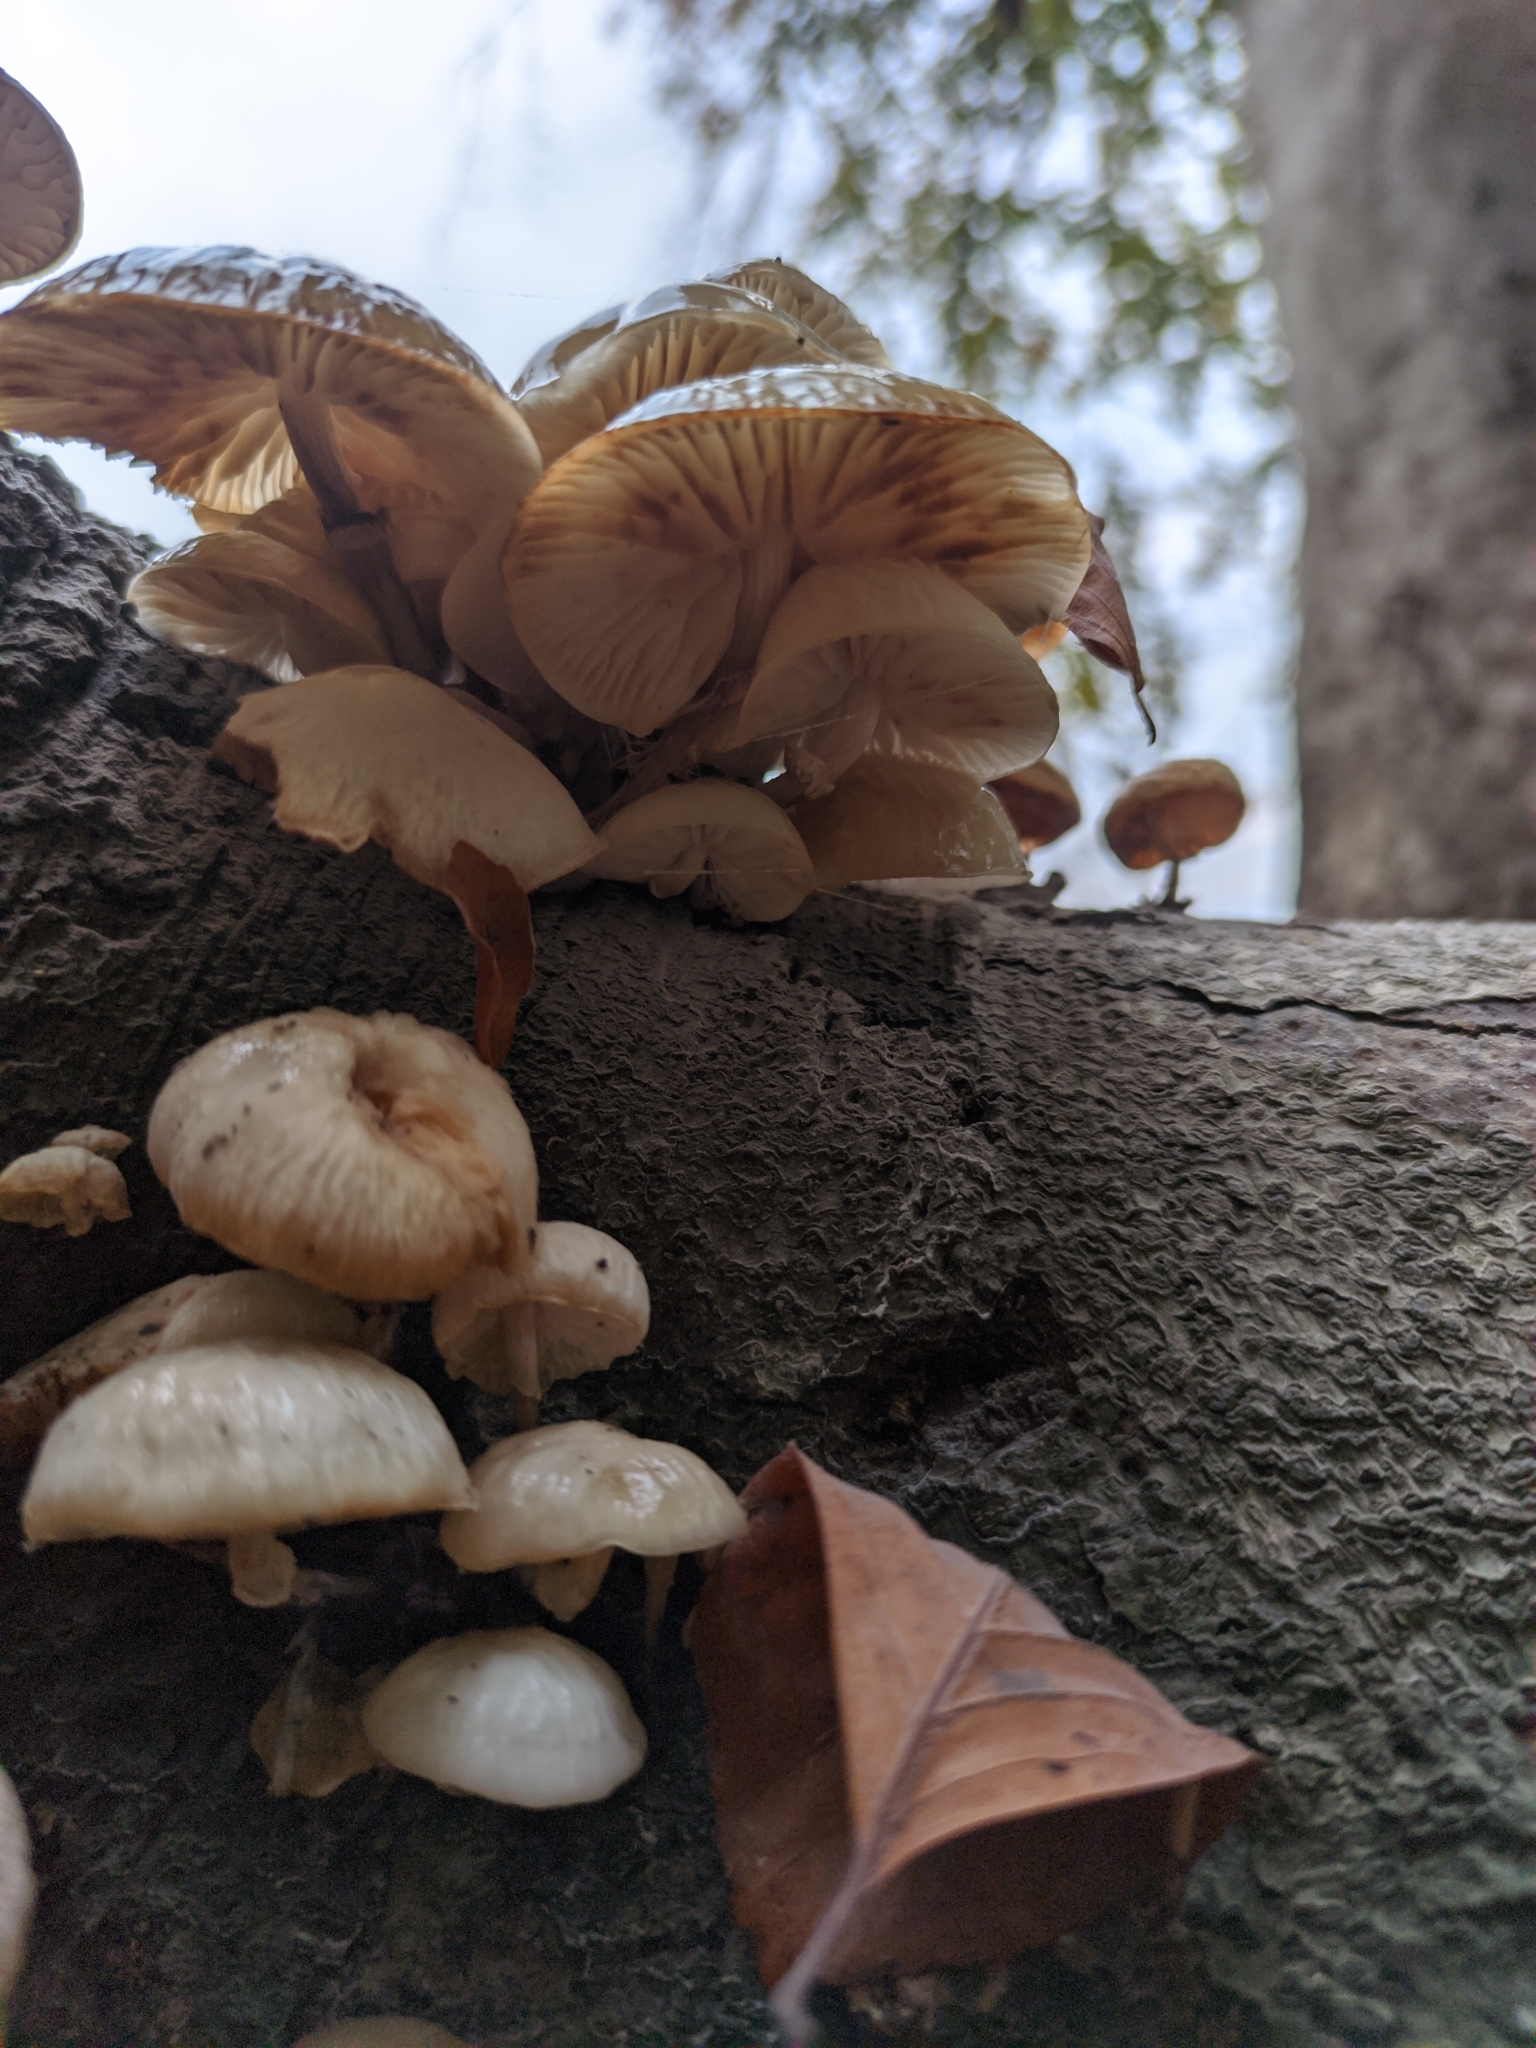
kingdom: Fungi
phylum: Basidiomycota
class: Agaricomycetes
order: Agaricales
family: Physalacriaceae
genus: Mucidula
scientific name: Mucidula mucida
